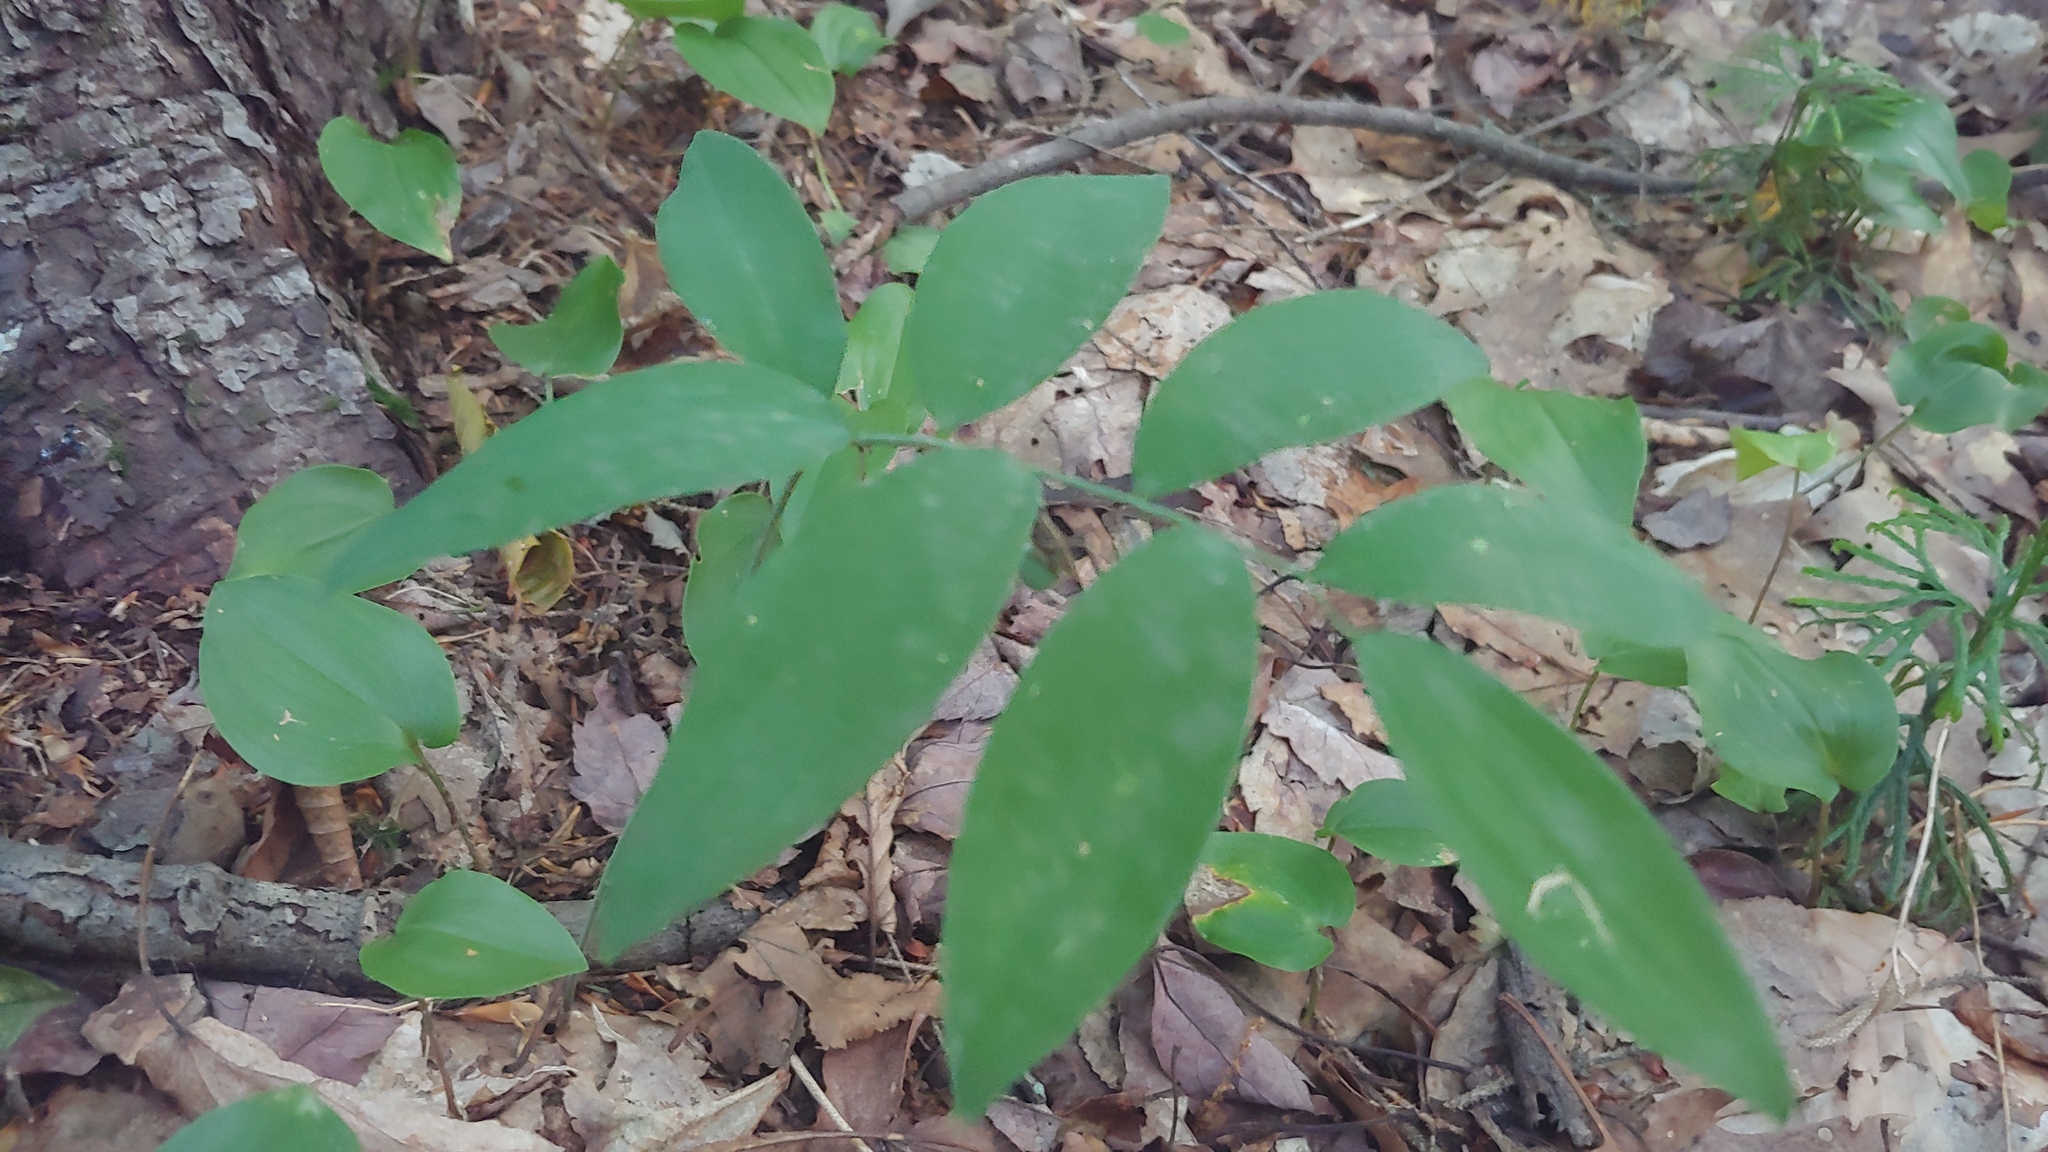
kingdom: Plantae
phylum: Tracheophyta
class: Liliopsida
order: Asparagales
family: Asparagaceae
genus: Polygonatum
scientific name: Polygonatum pubescens
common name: Downy solomon's seal
